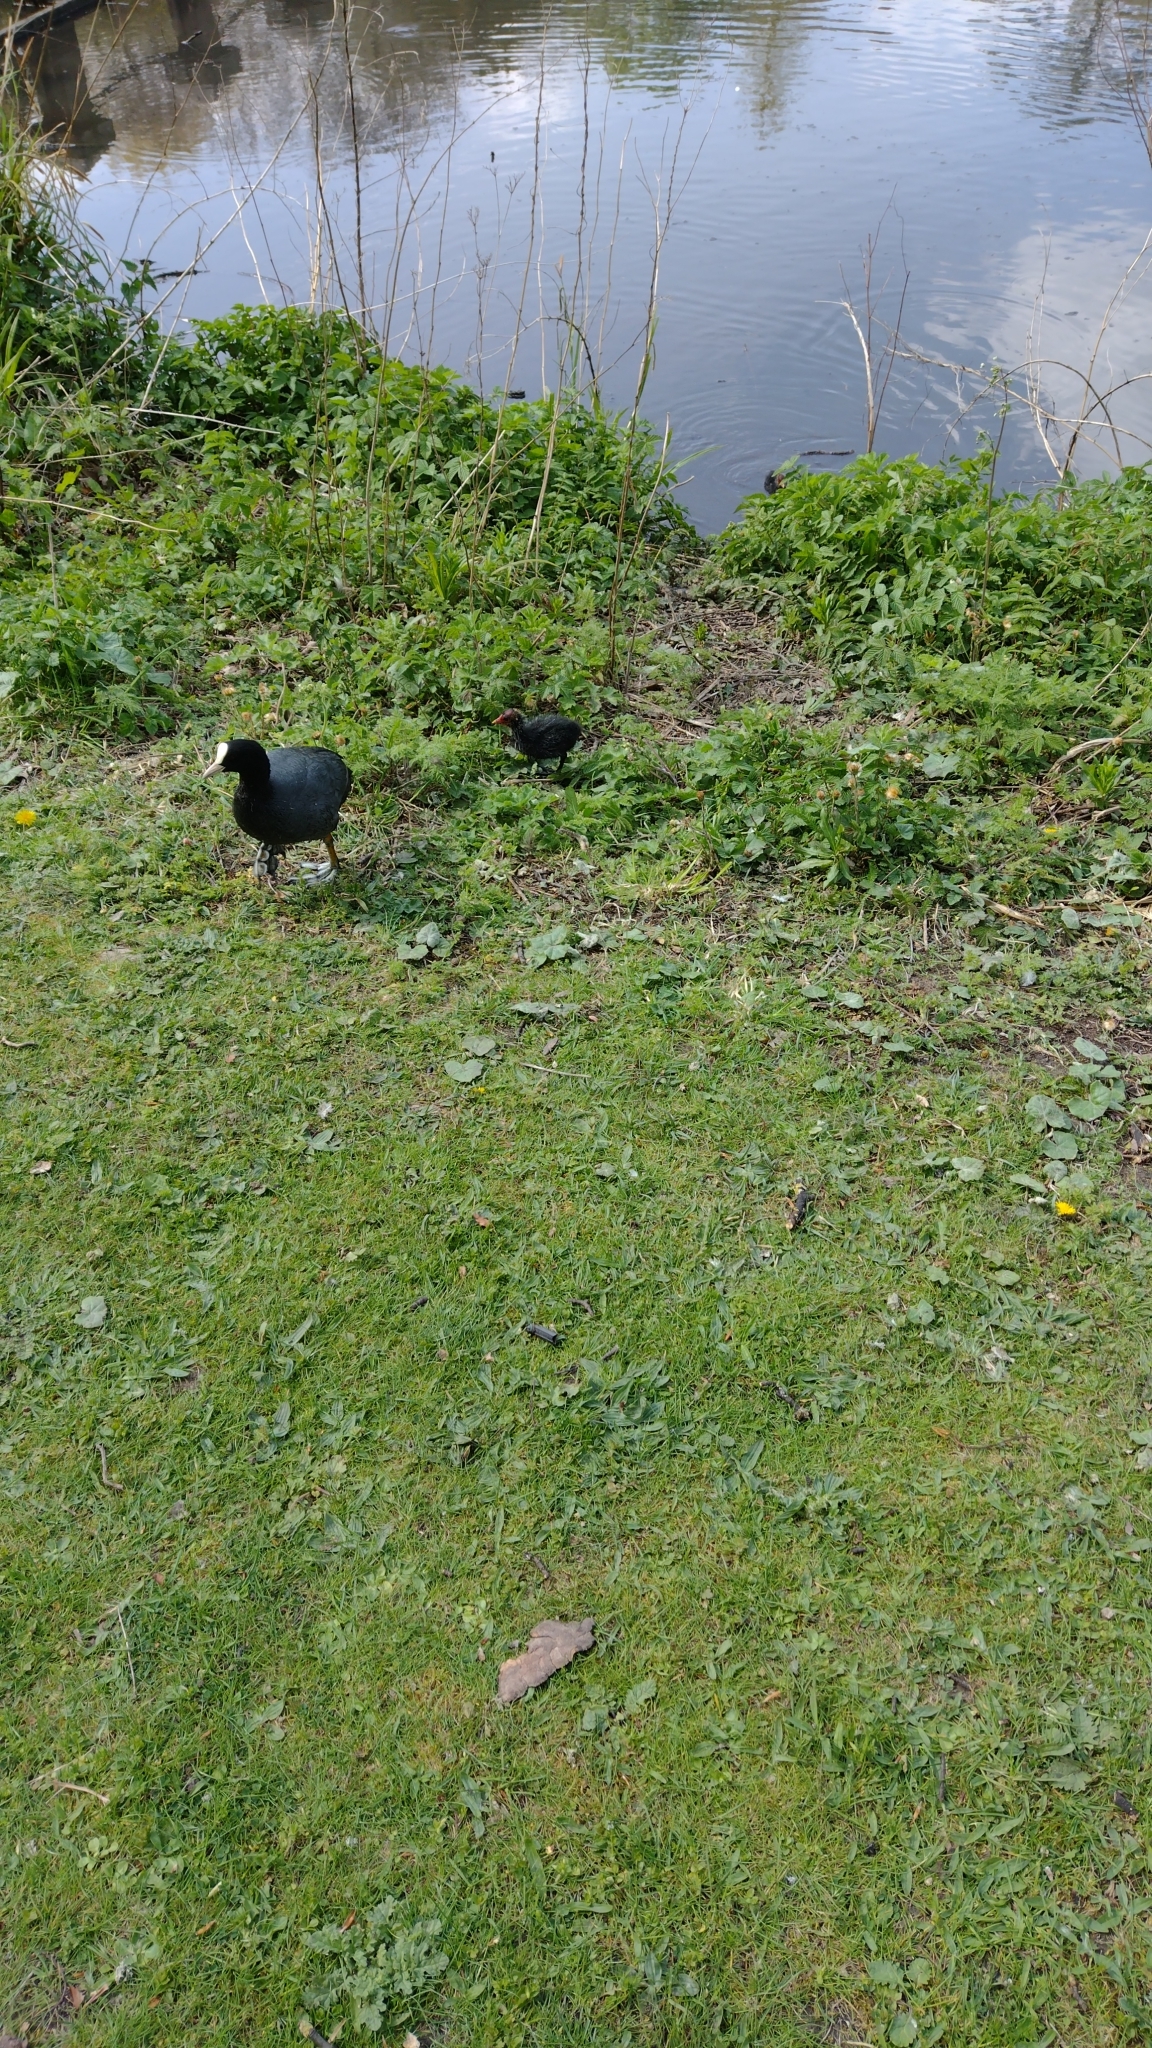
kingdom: Animalia
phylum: Chordata
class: Aves
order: Gruiformes
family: Rallidae
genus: Fulica
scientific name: Fulica atra
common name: Eurasian coot
